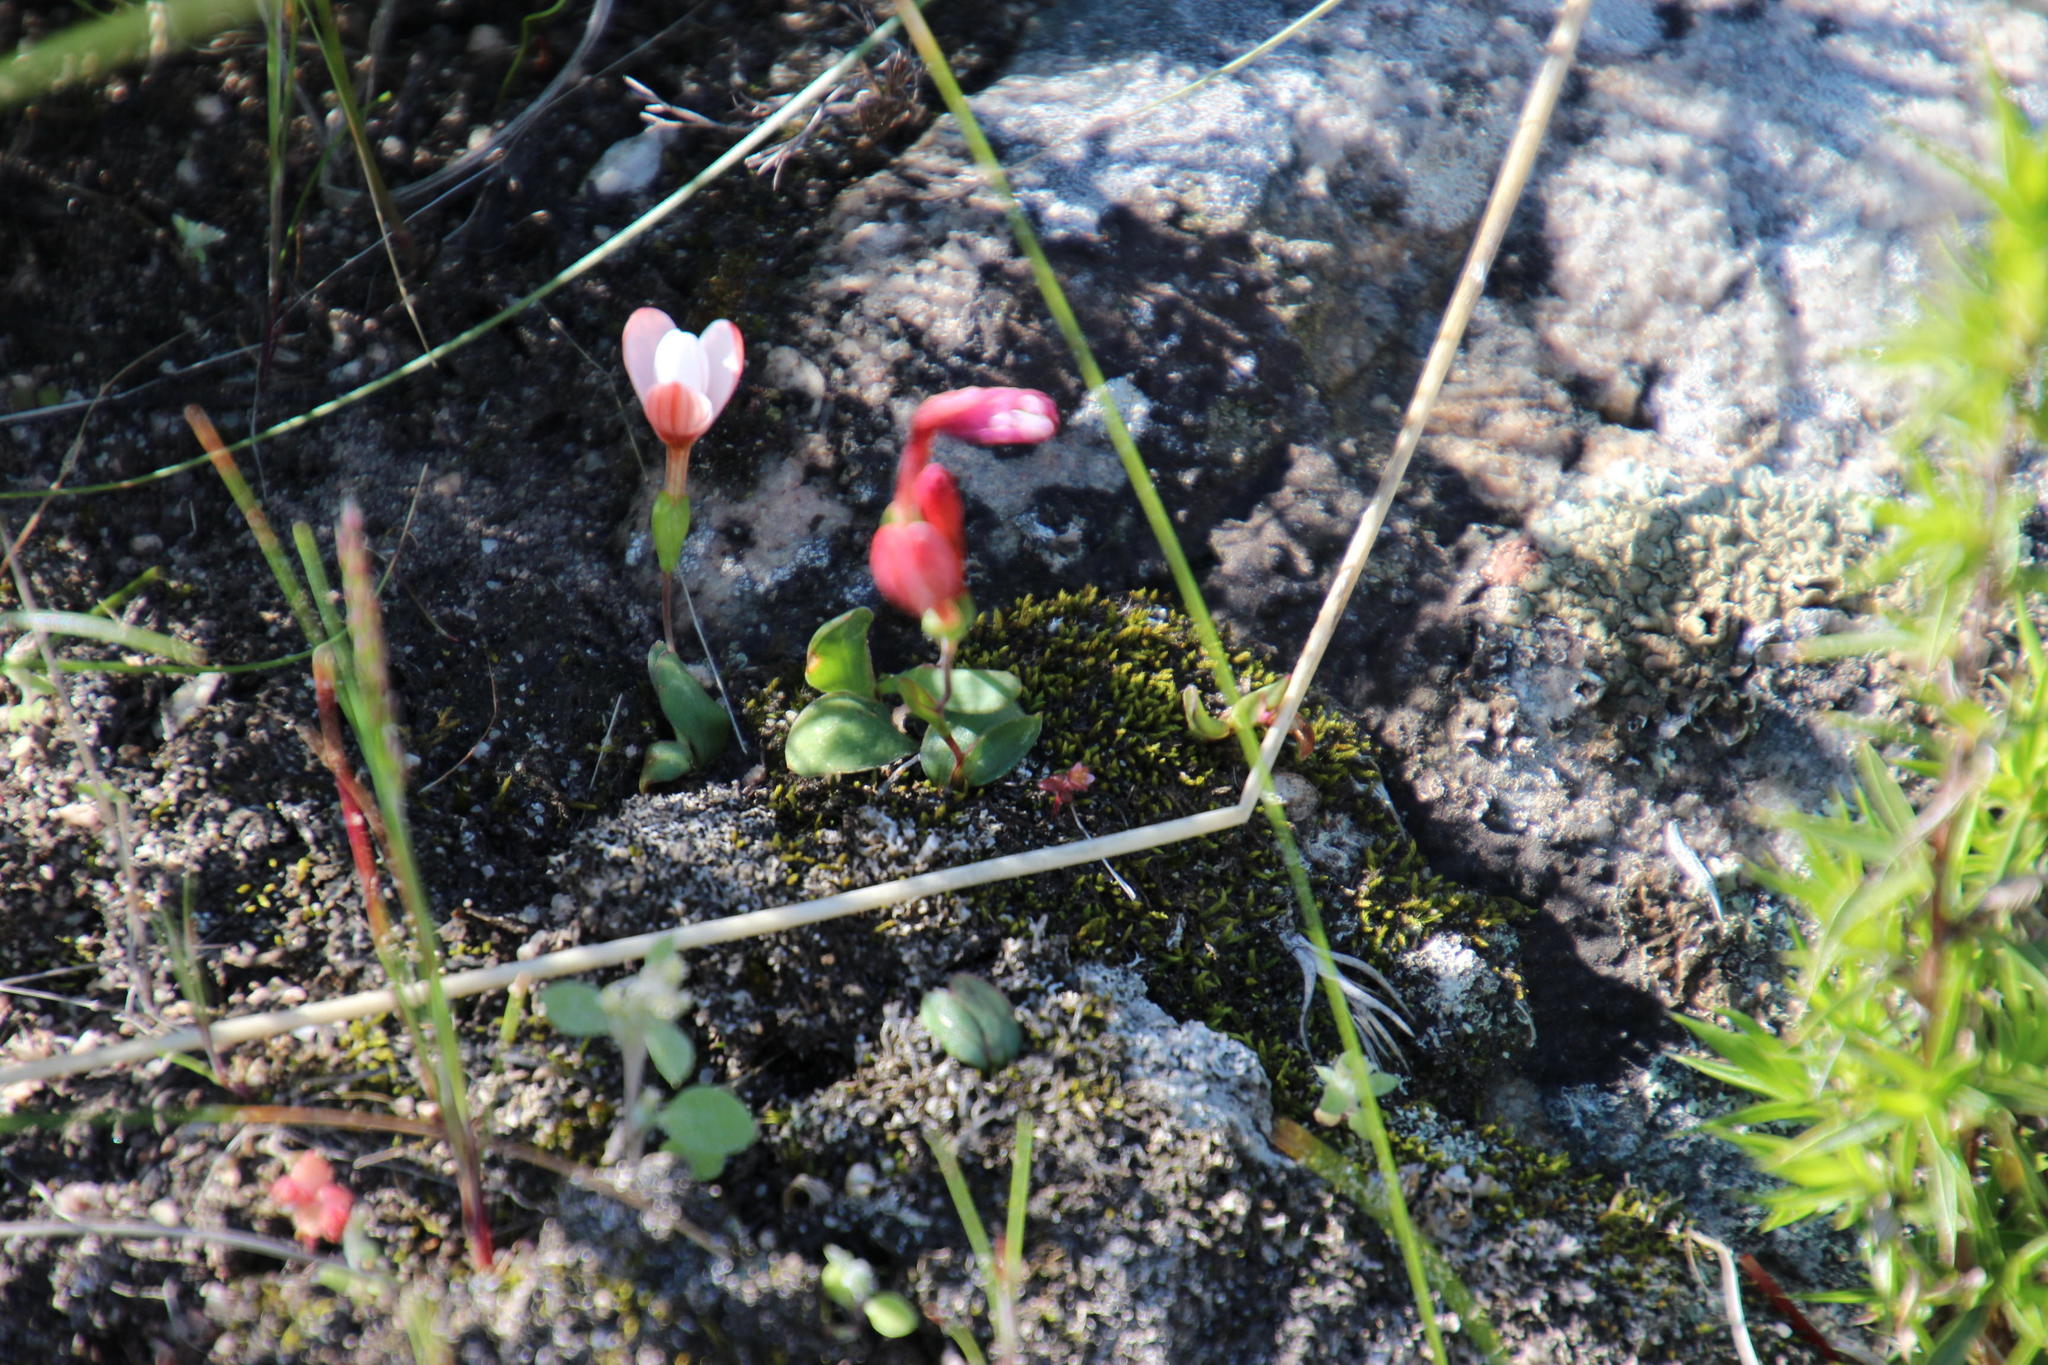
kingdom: Plantae
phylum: Tracheophyta
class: Liliopsida
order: Asparagales
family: Iridaceae
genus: Geissorhiza
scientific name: Geissorhiza ovata
